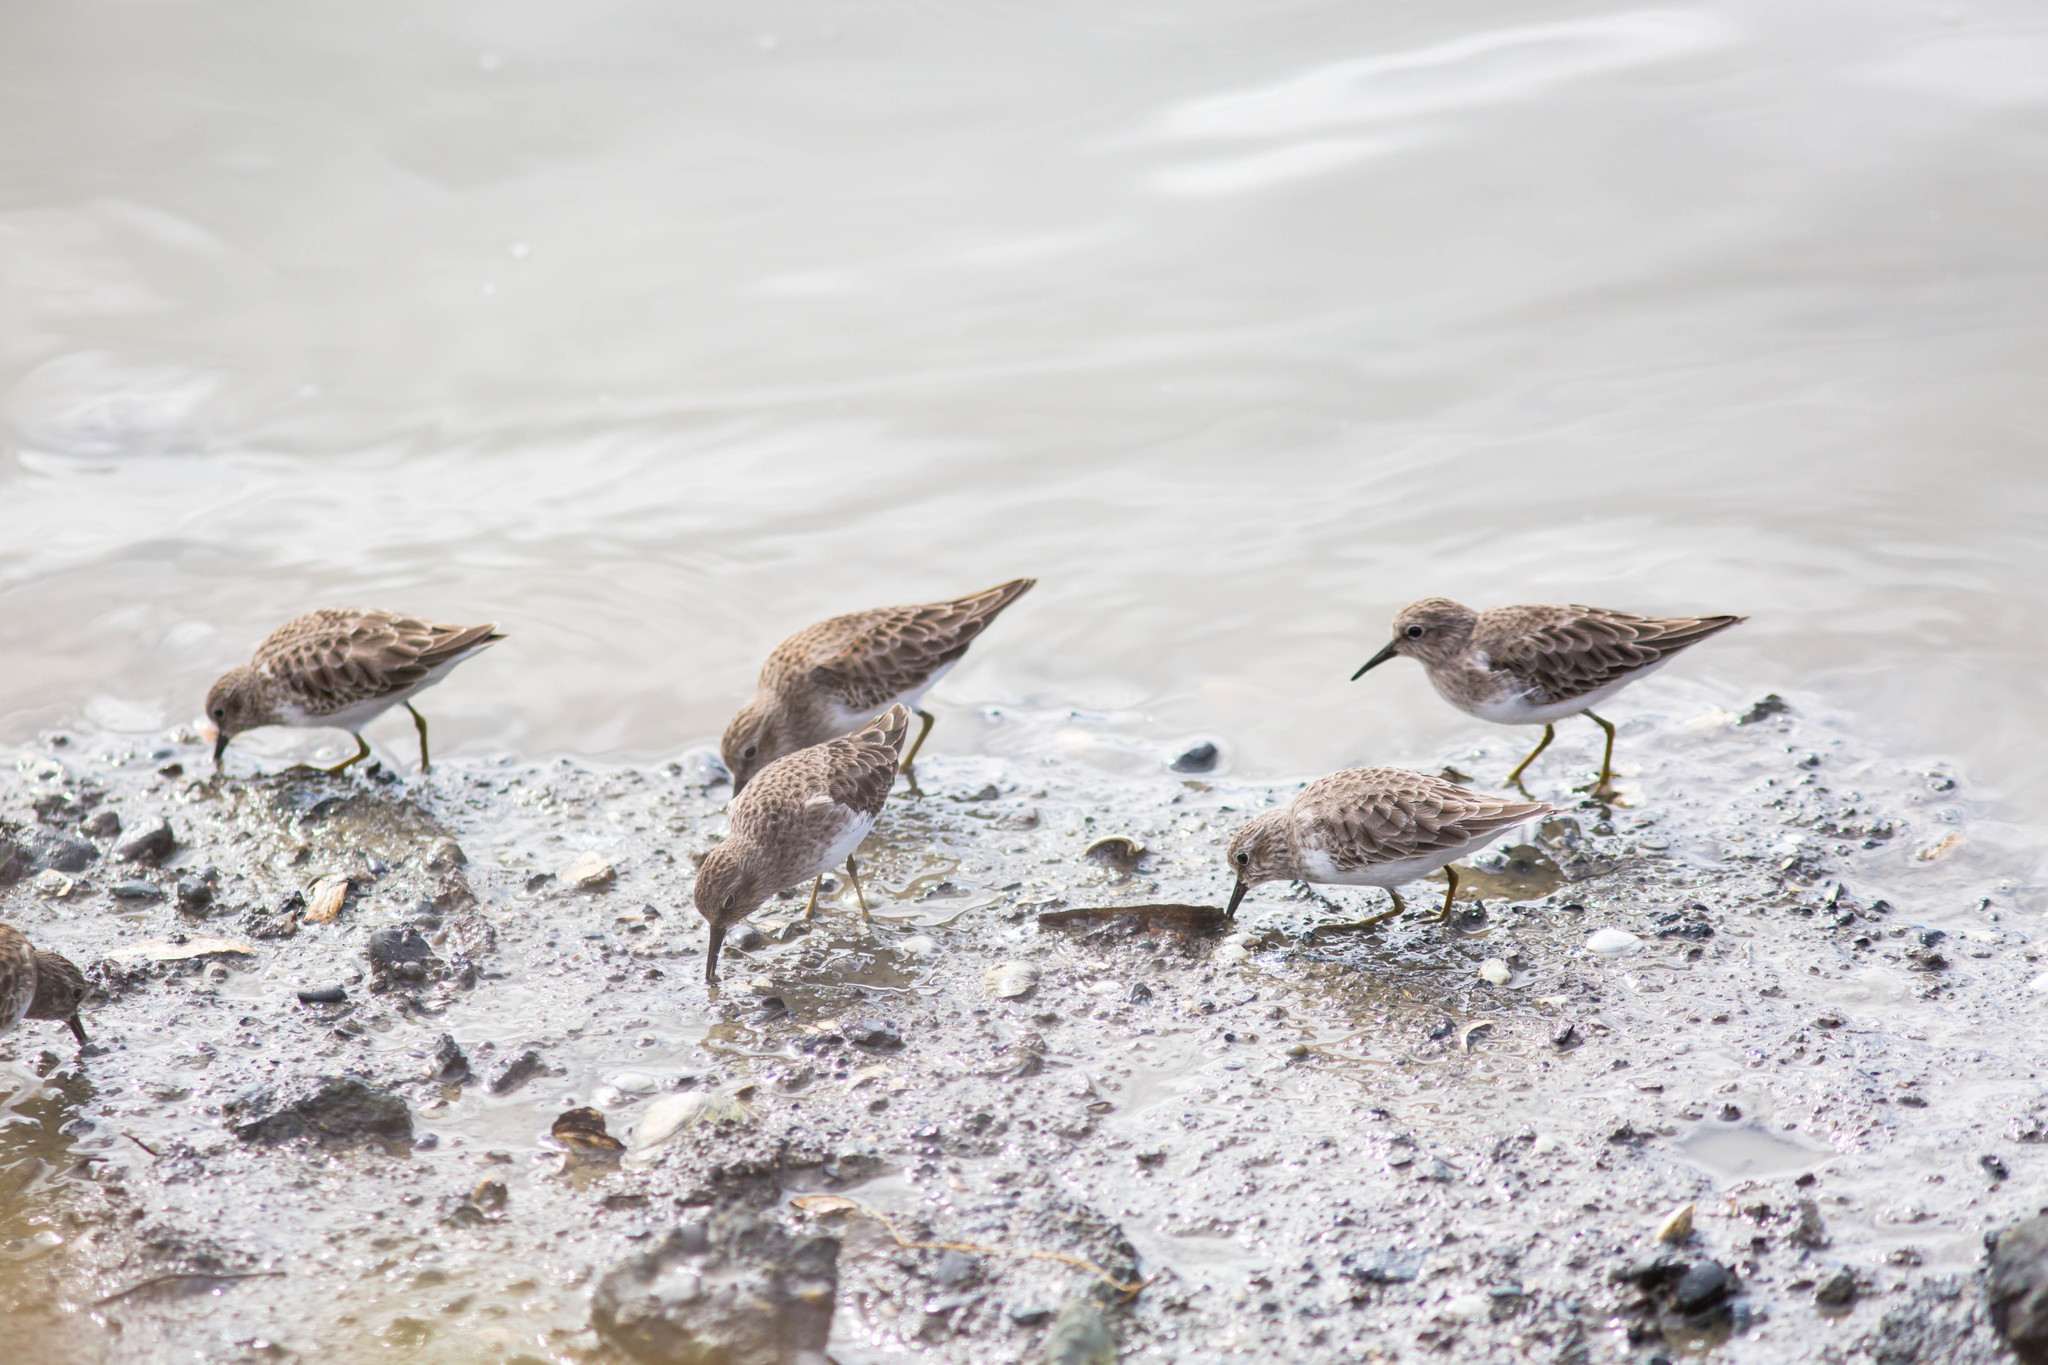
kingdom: Animalia
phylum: Chordata
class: Aves
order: Charadriiformes
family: Scolopacidae
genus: Calidris
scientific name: Calidris minutilla
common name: Least sandpiper
